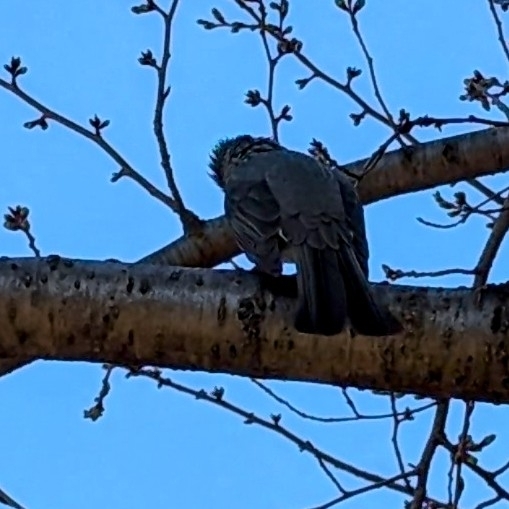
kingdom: Animalia
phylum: Chordata
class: Aves
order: Passeriformes
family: Pycnonotidae
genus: Hypsipetes
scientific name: Hypsipetes amaurotis
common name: Brown-eared bulbul
